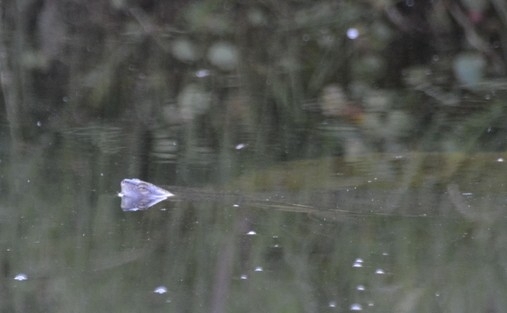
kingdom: Animalia
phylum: Chordata
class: Testudines
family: Chelidae
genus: Phrynops
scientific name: Phrynops hilarii
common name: Side-necked turtle of saint hillaire
